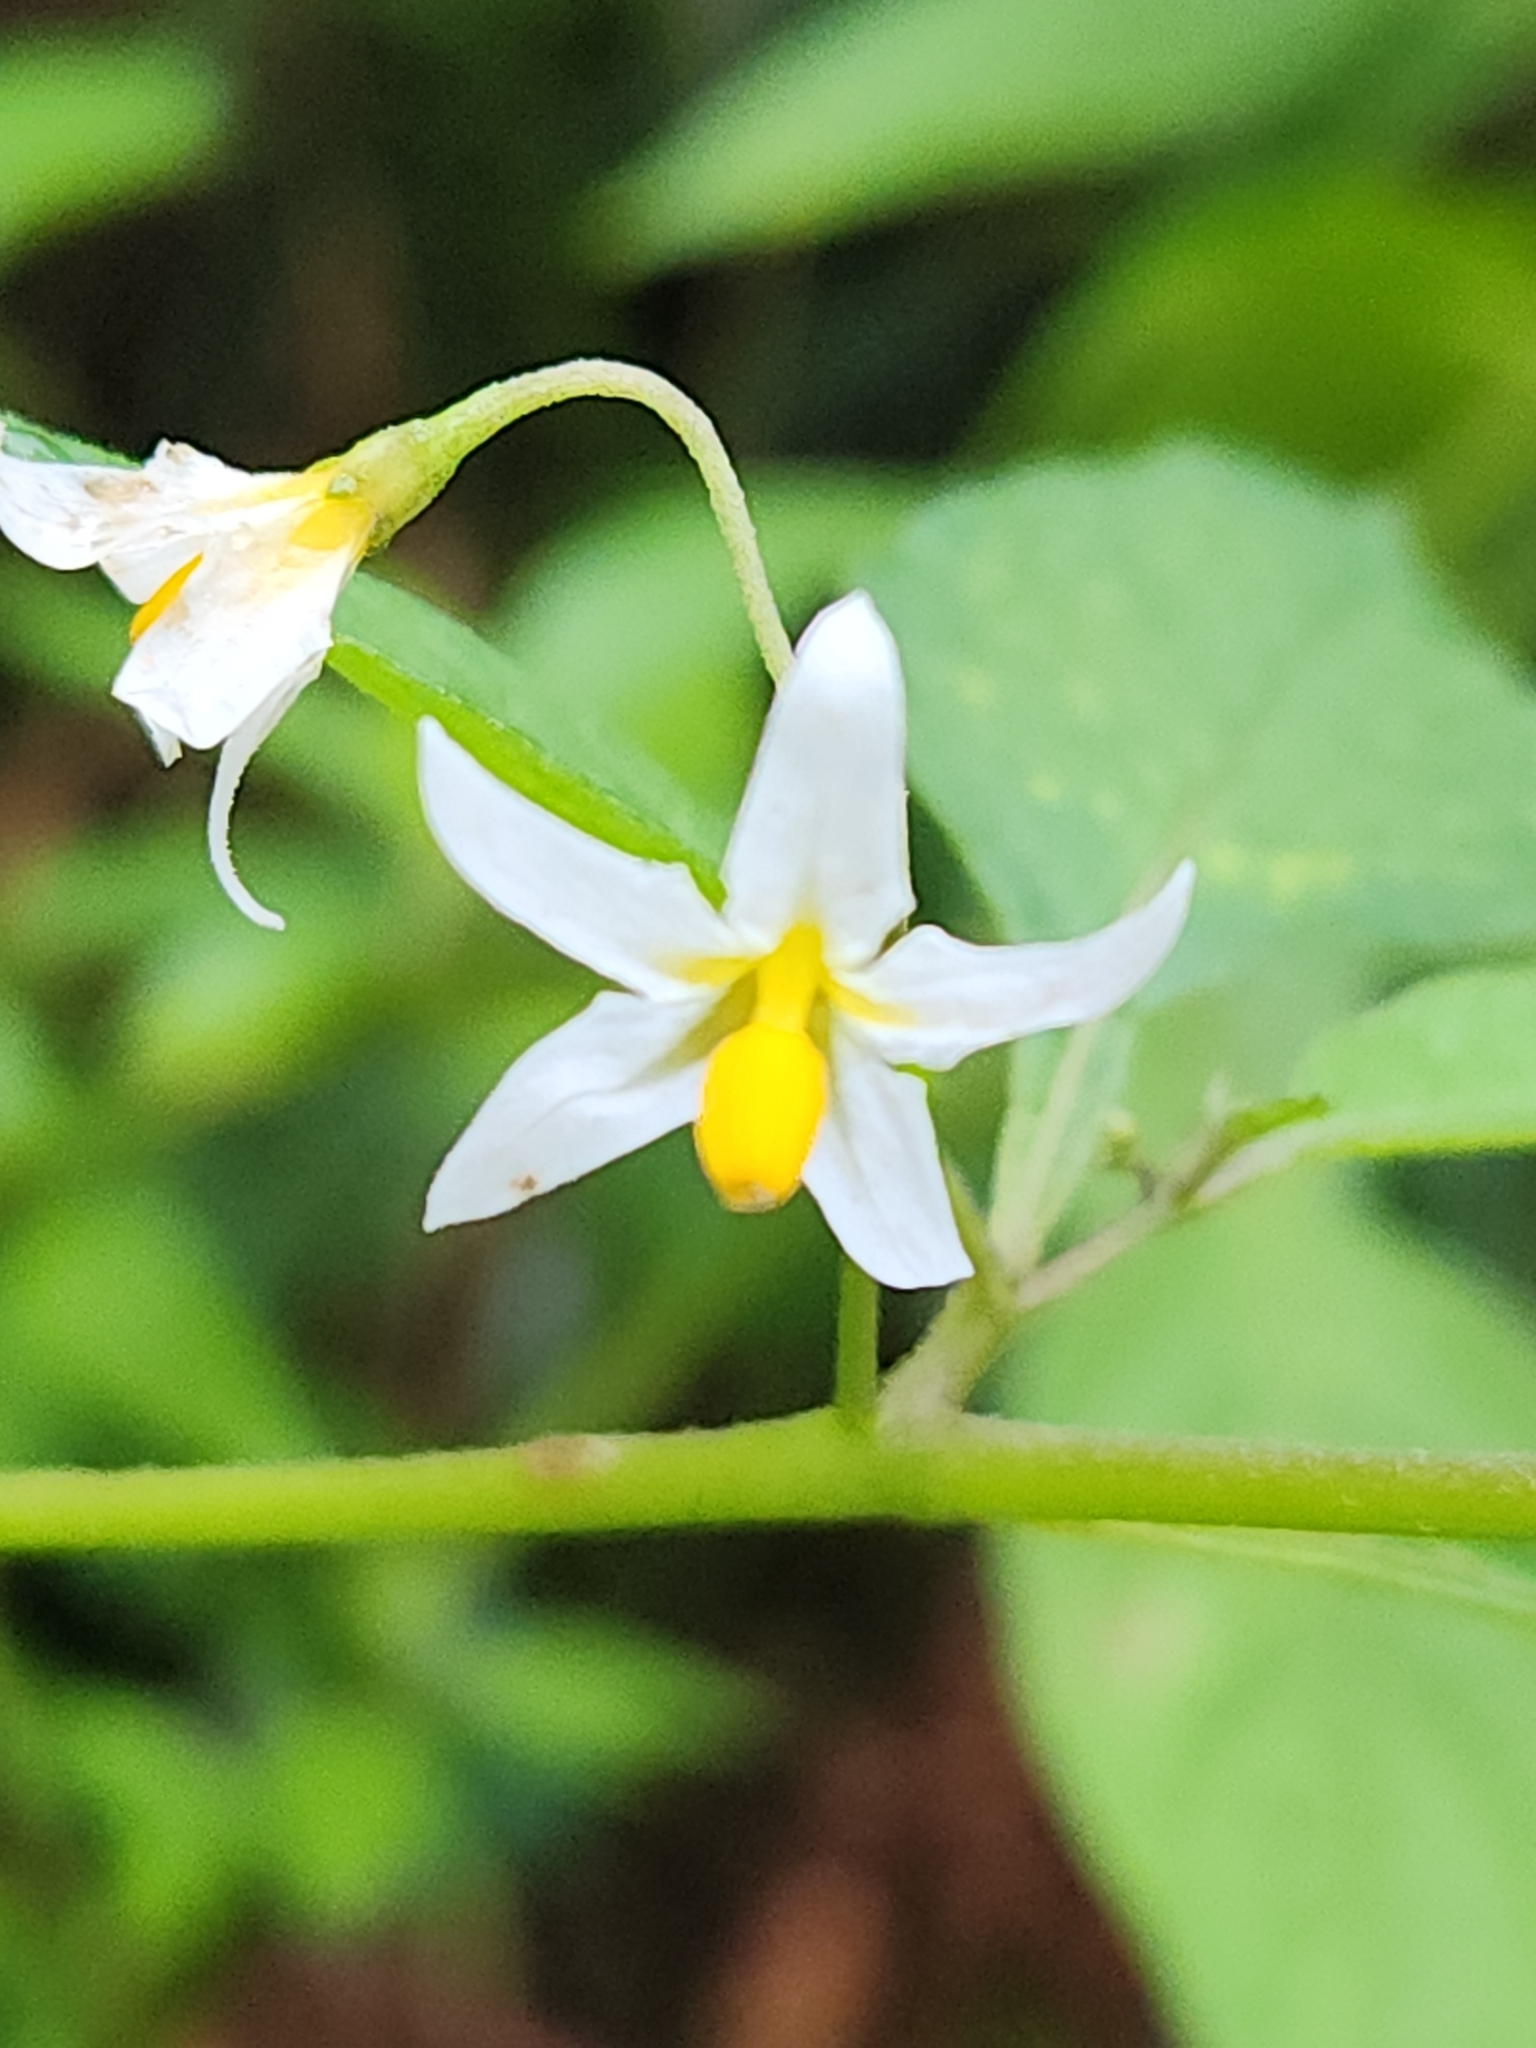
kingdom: Plantae
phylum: Tracheophyta
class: Magnoliopsida
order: Solanales
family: Solanaceae
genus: Solanum
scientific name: Solanum macrotonum
